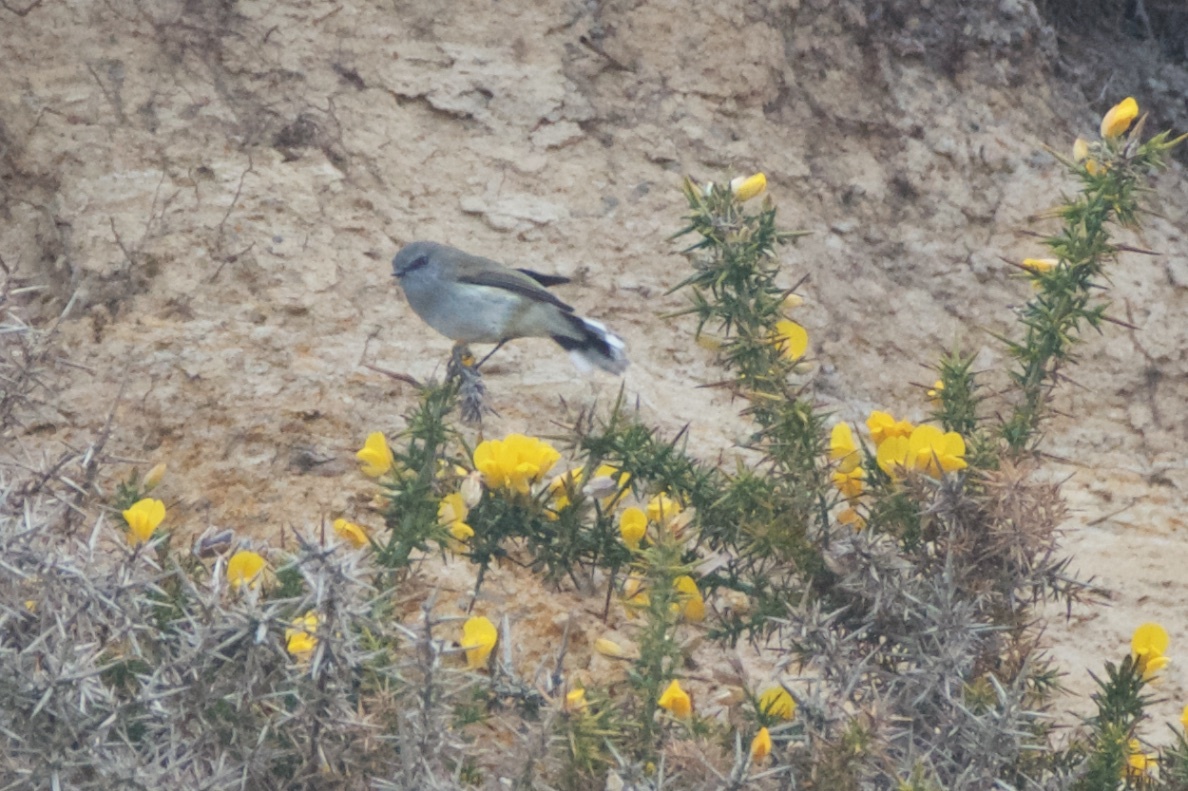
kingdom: Animalia
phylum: Chordata
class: Aves
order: Passeriformes
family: Acanthizidae
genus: Gerygone
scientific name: Gerygone igata
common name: Grey gerygone
